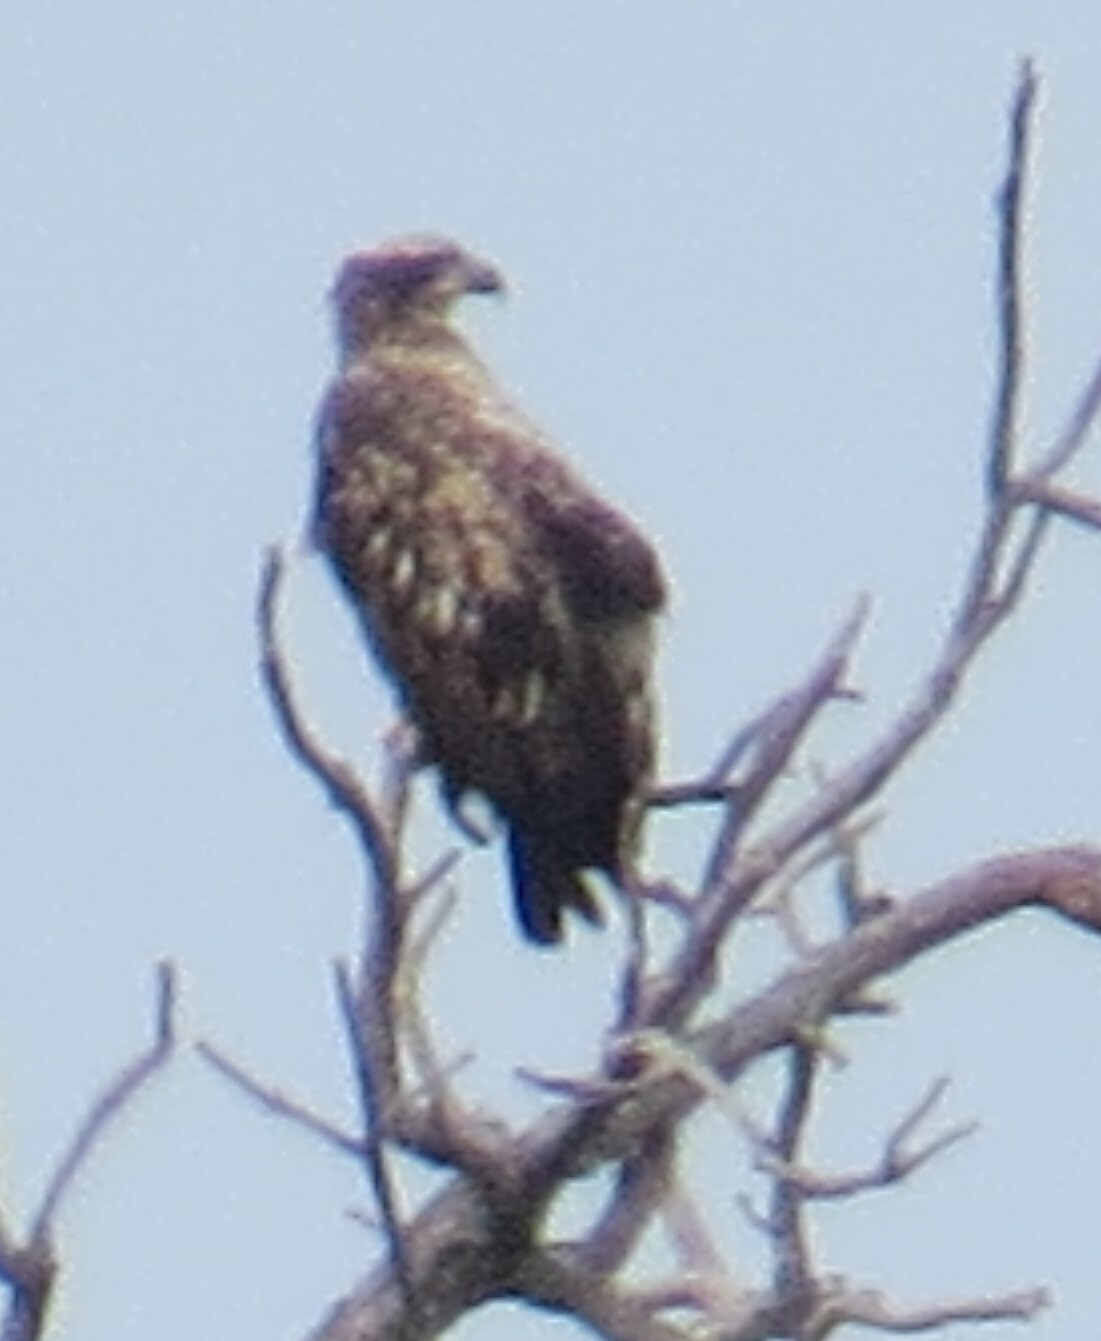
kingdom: Animalia
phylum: Chordata
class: Aves
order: Accipitriformes
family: Accipitridae
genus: Haliaeetus
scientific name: Haliaeetus leucocephalus
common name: Bald eagle
